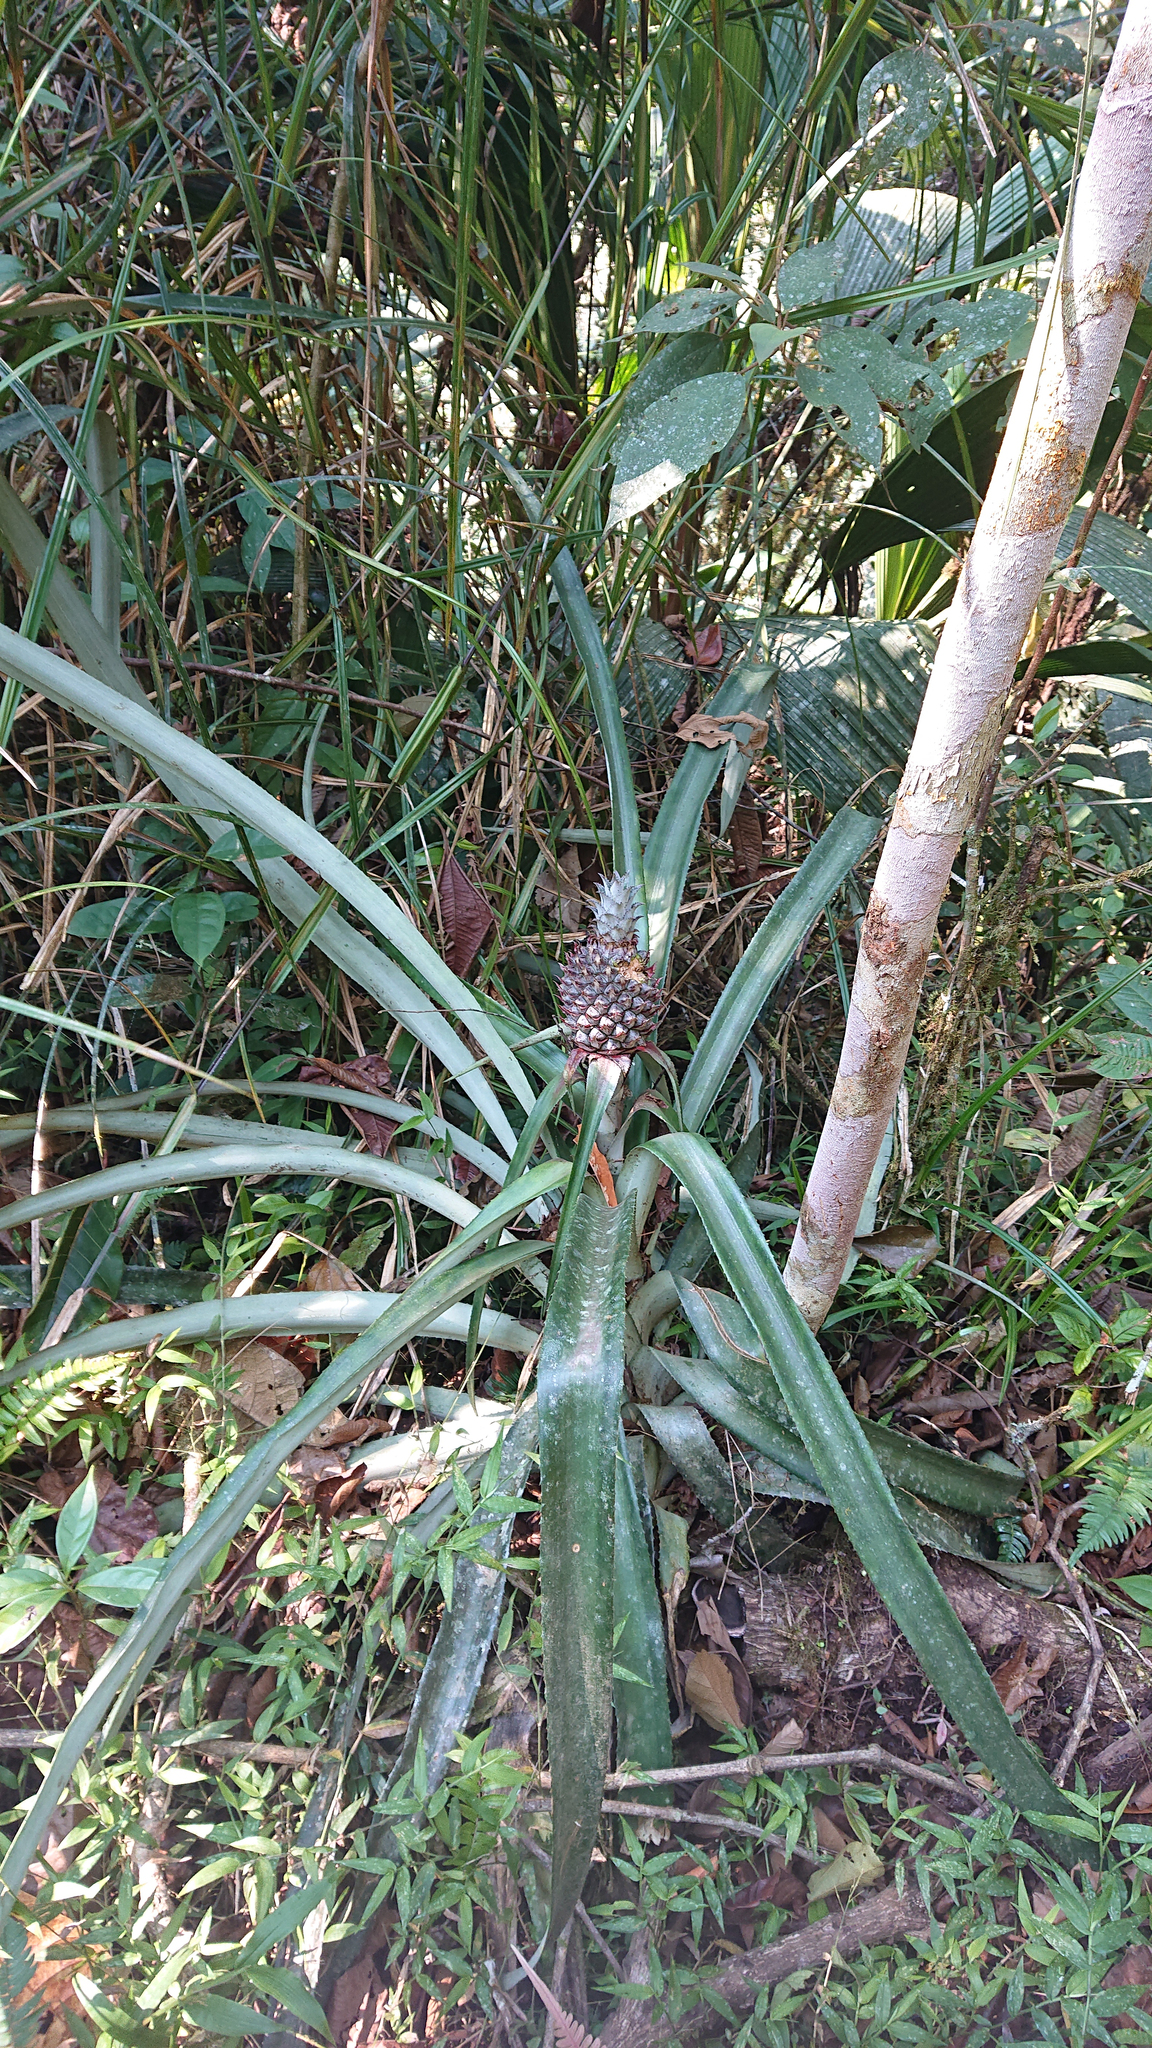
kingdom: Plantae
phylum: Tracheophyta
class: Liliopsida
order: Poales
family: Bromeliaceae
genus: Ananas
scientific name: Ananas comosus
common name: Pineapple
